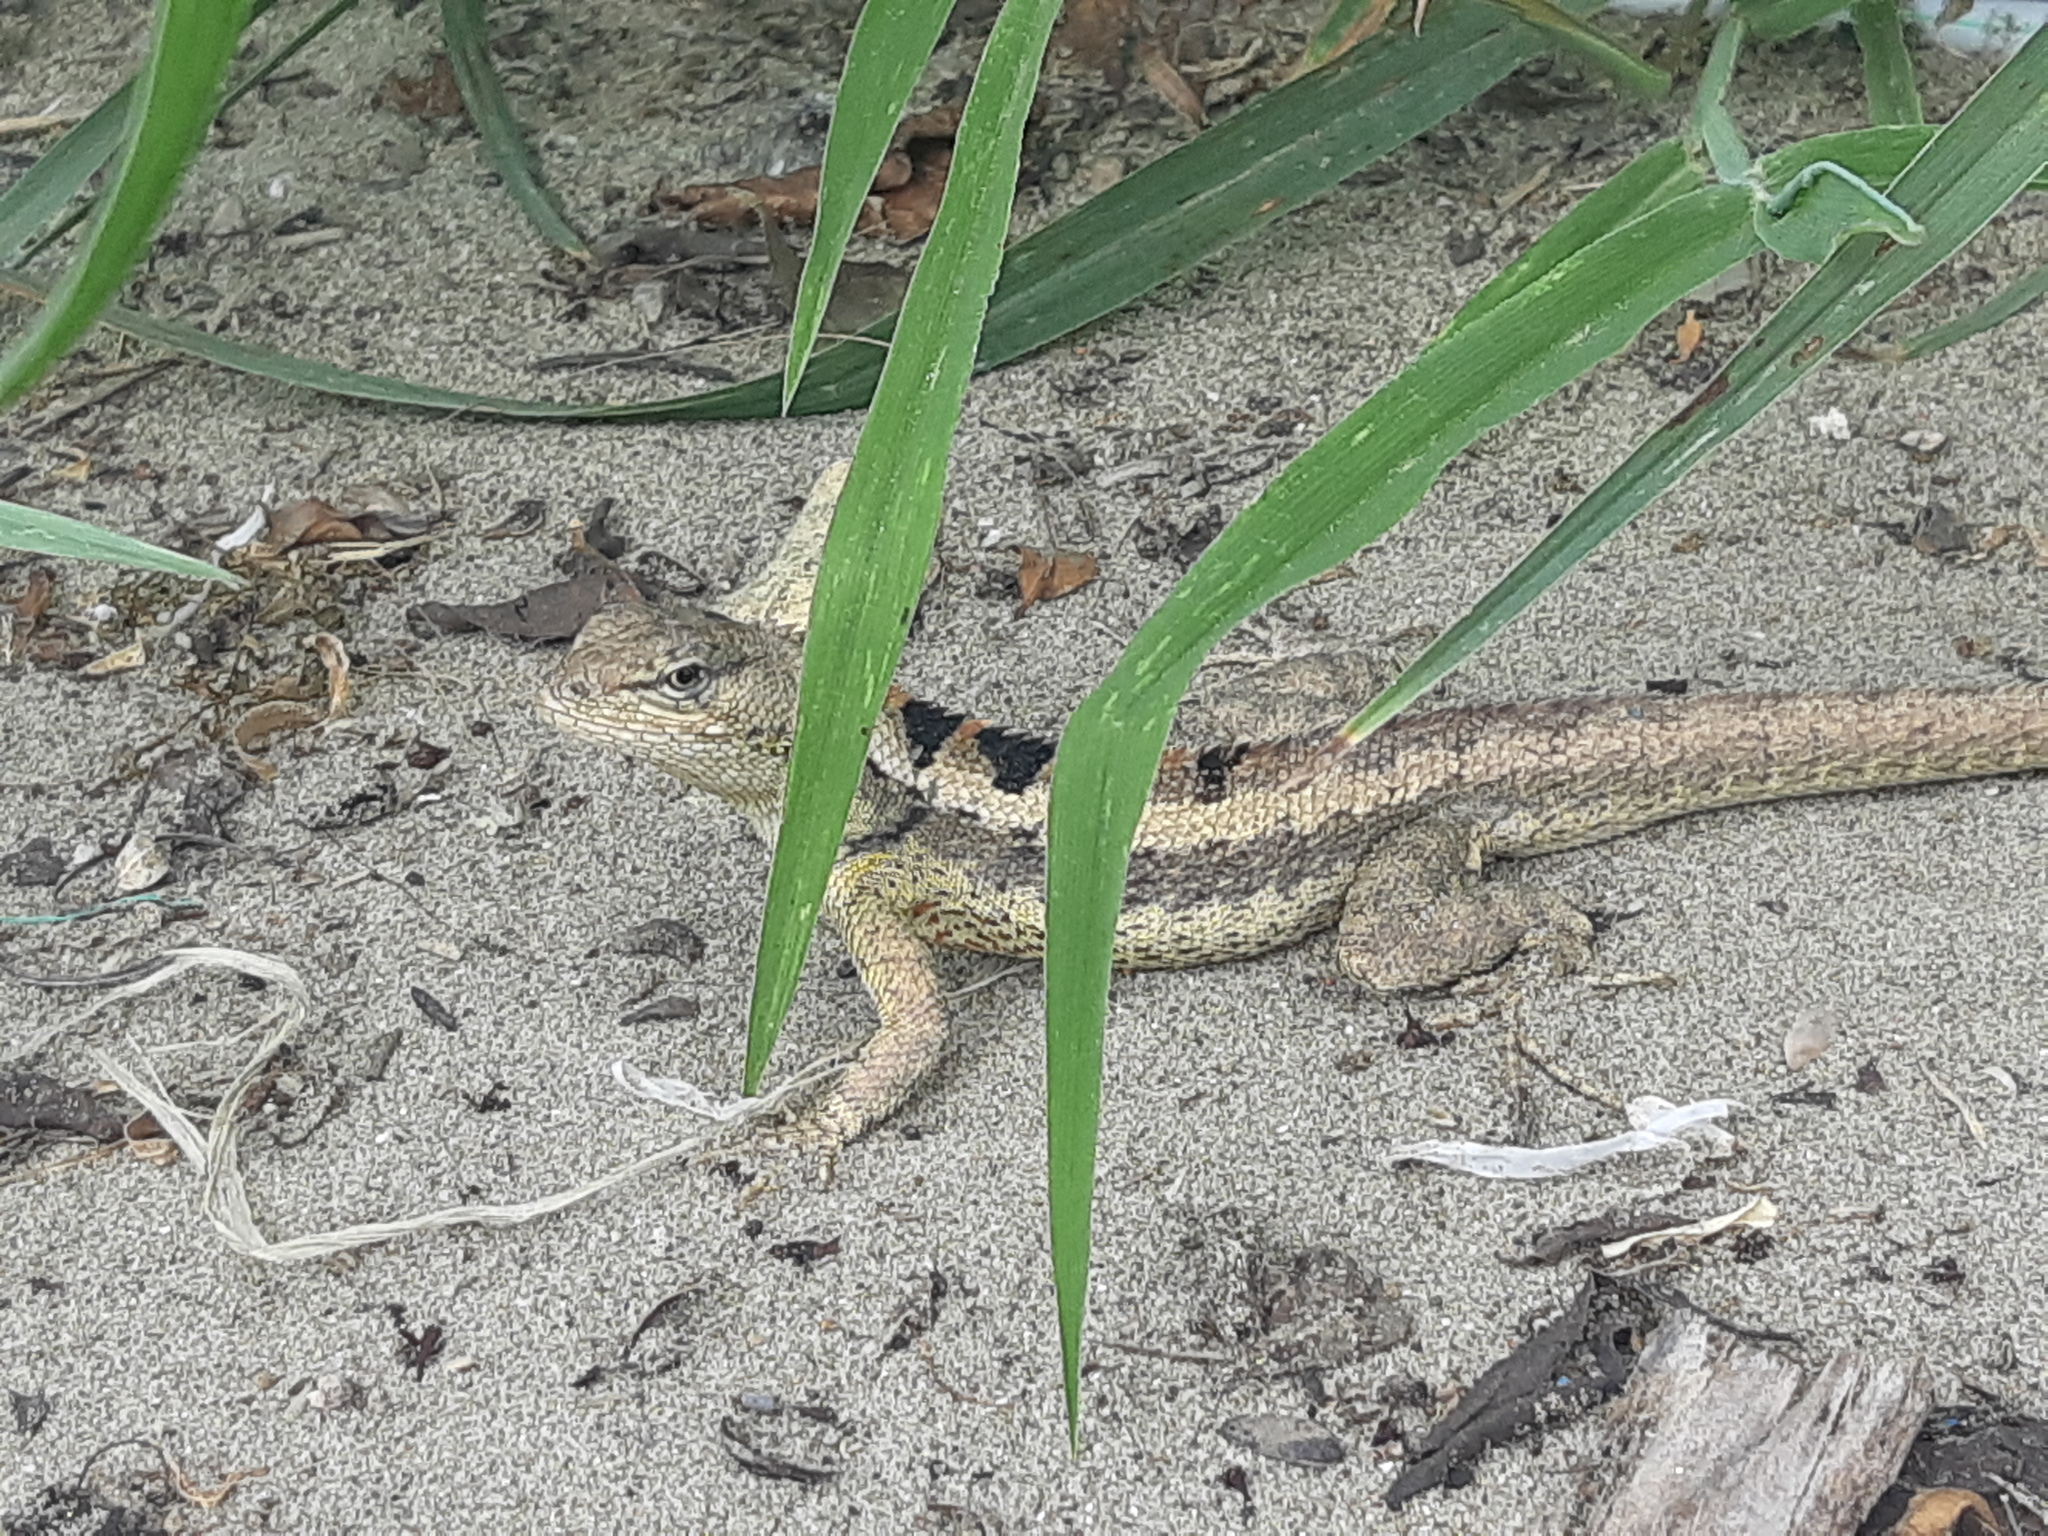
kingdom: Animalia
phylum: Chordata
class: Squamata
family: Tropiduridae
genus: Microlophus
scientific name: Microlophus occipitalis
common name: Knobbed pacific iguana
